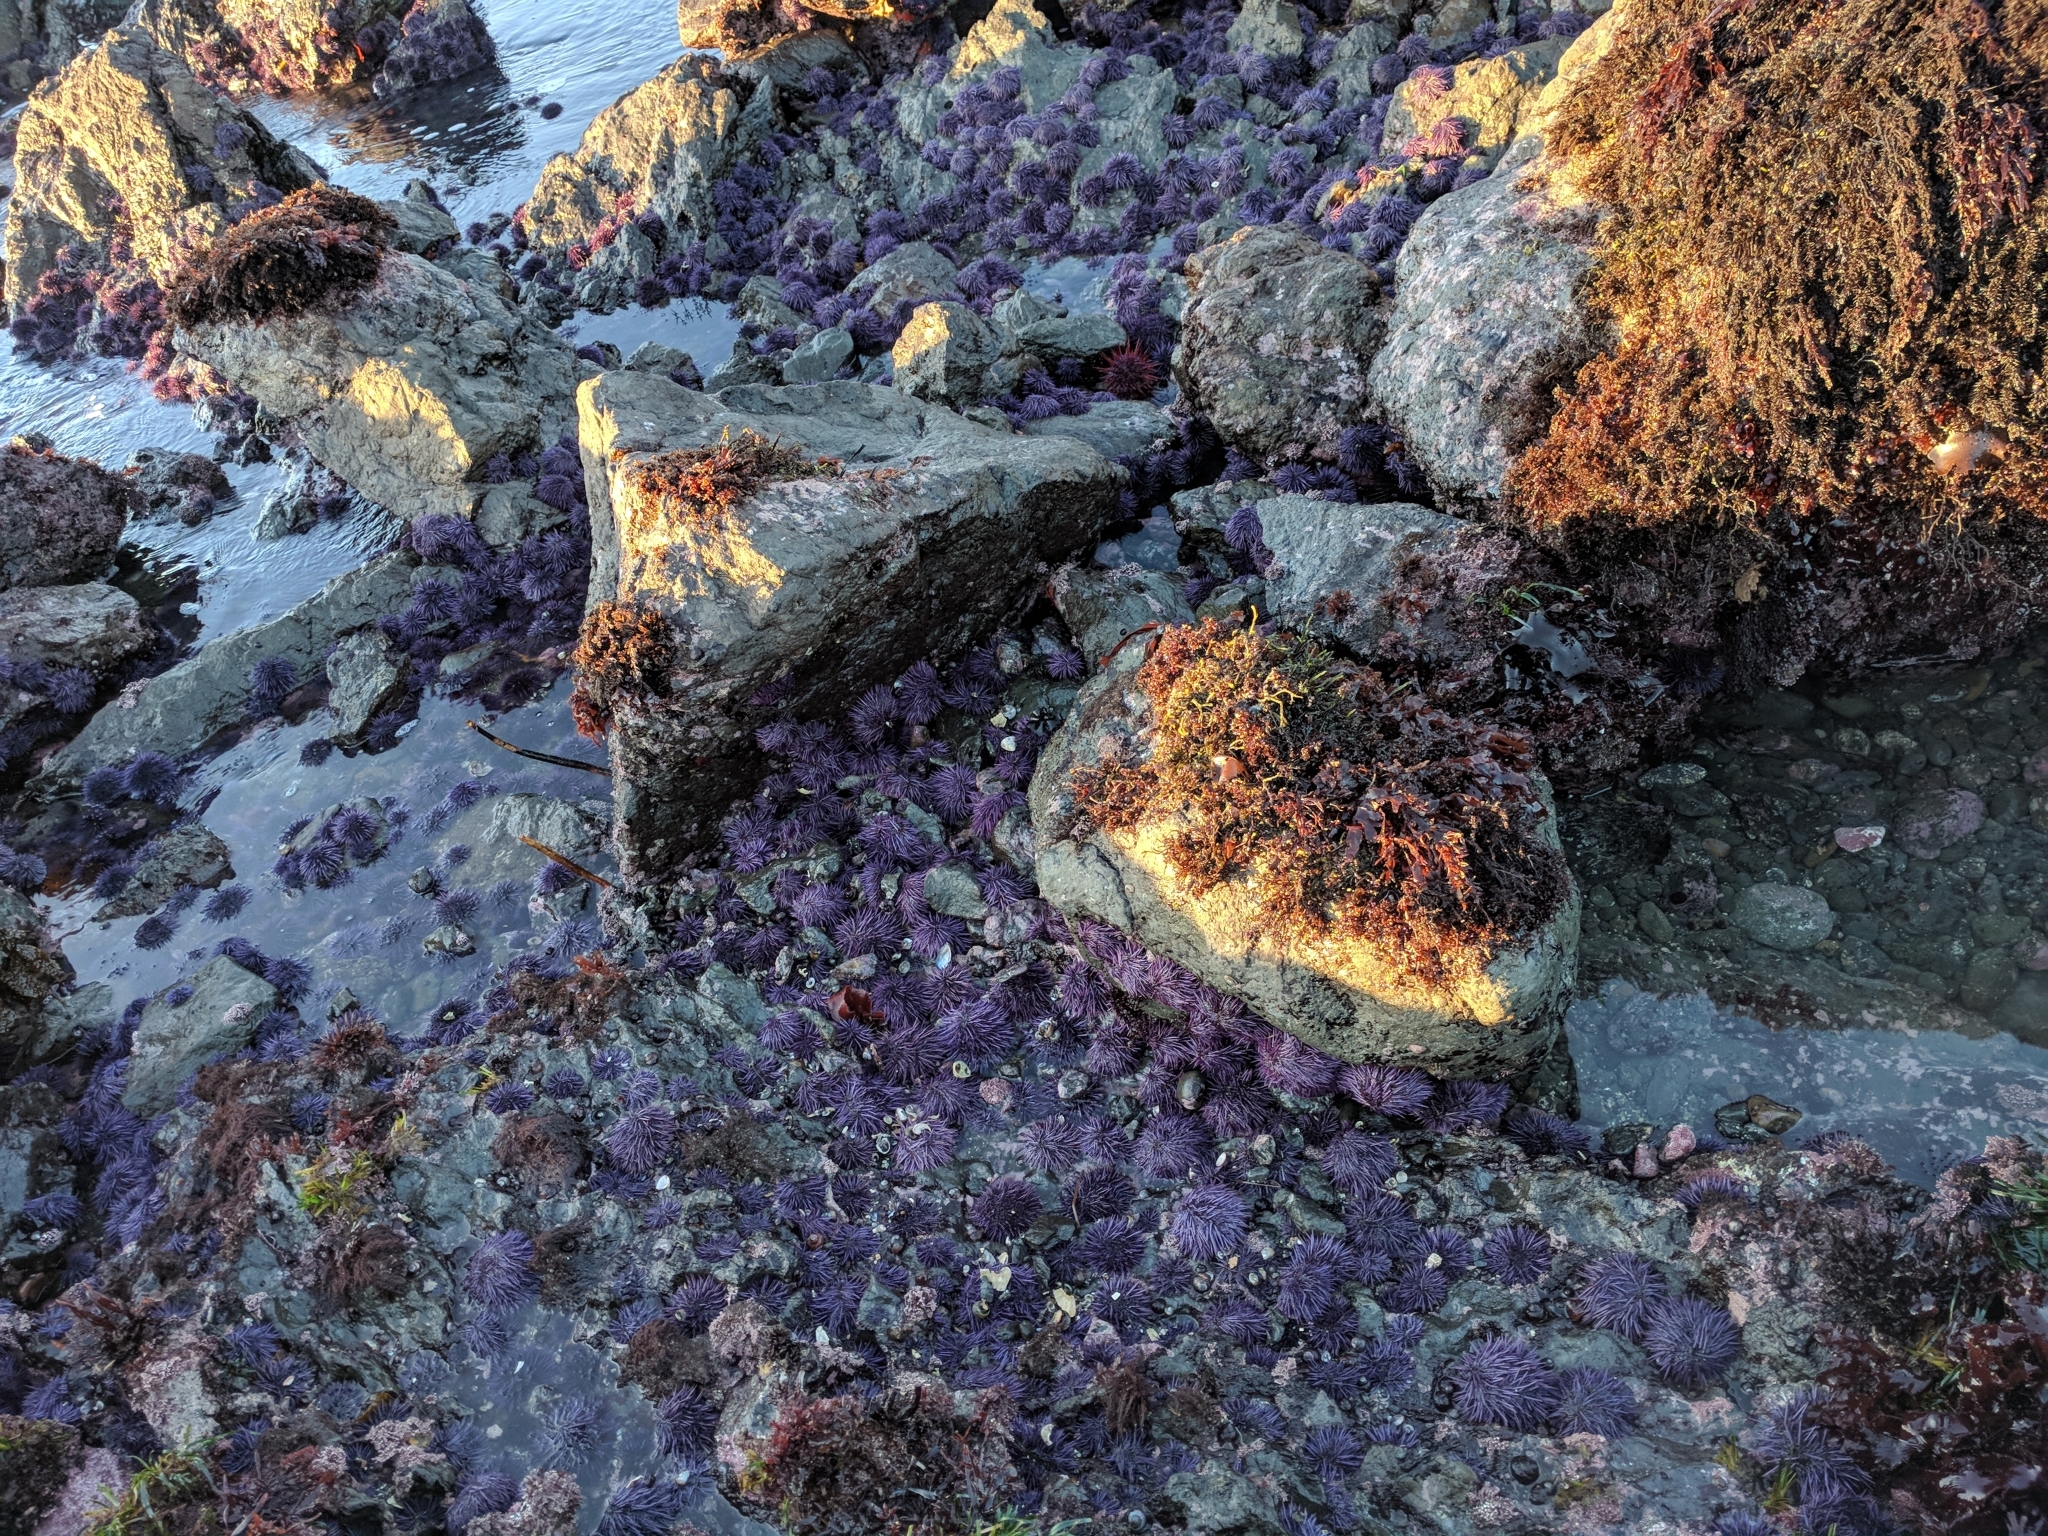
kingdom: Animalia
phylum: Echinodermata
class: Echinoidea
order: Camarodonta
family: Strongylocentrotidae
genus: Strongylocentrotus
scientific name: Strongylocentrotus purpuratus
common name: Purple sea urchin
